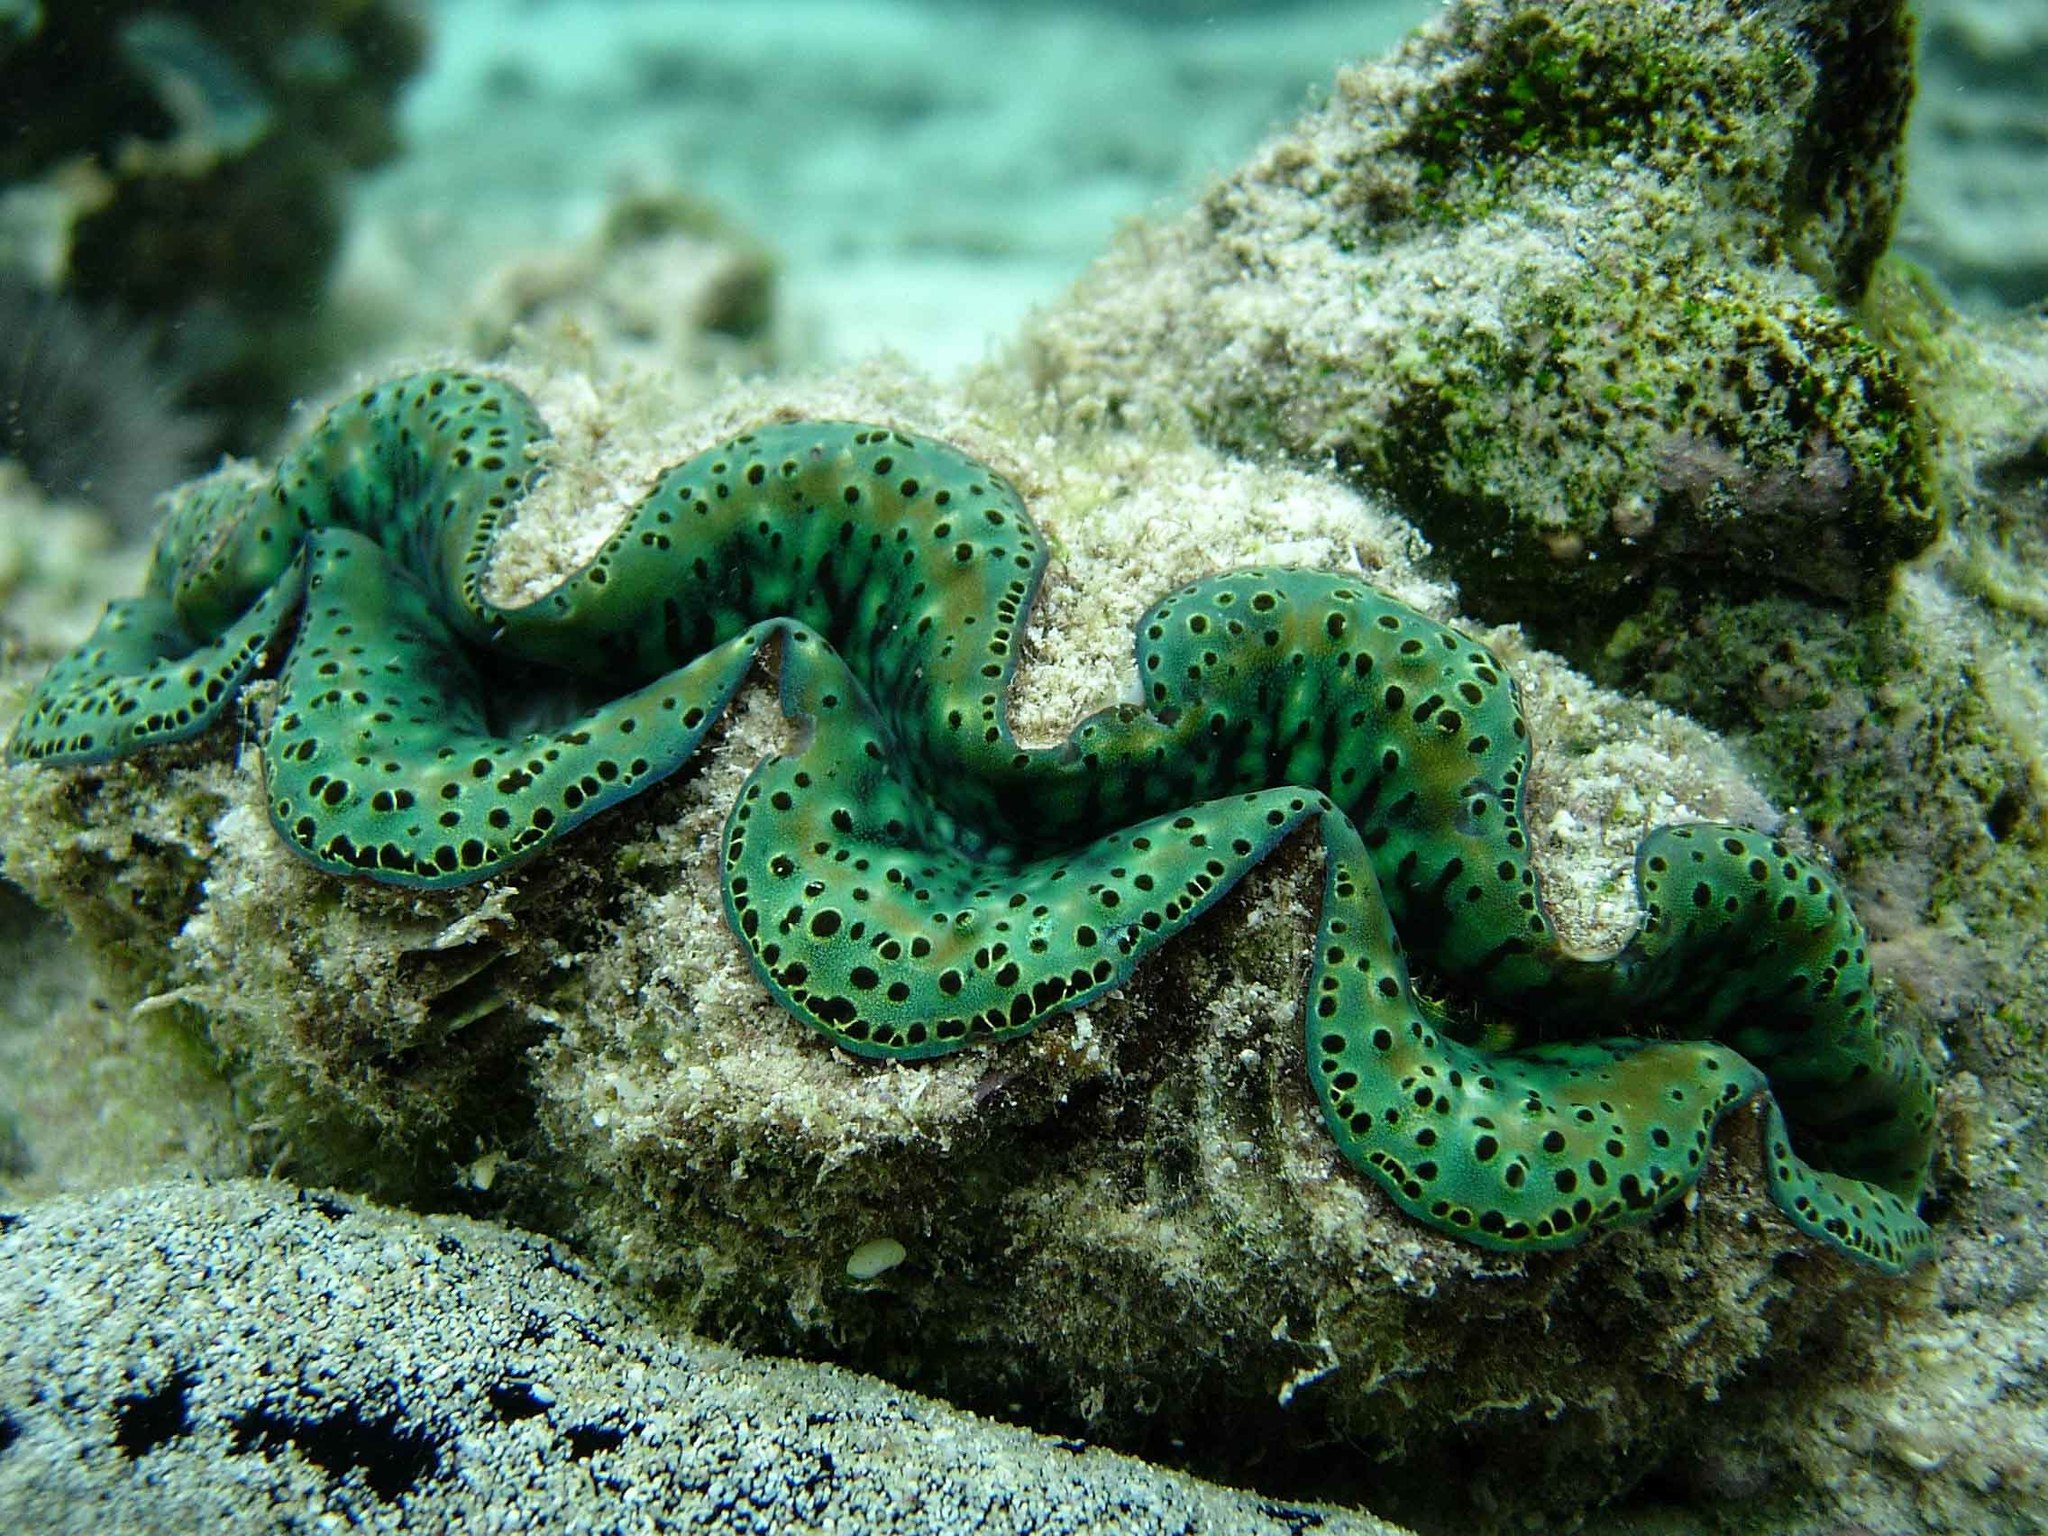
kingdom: Animalia
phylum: Mollusca
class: Bivalvia
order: Cardiida
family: Cardiidae
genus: Tridacna
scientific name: Tridacna maxima
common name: Small giant clam
